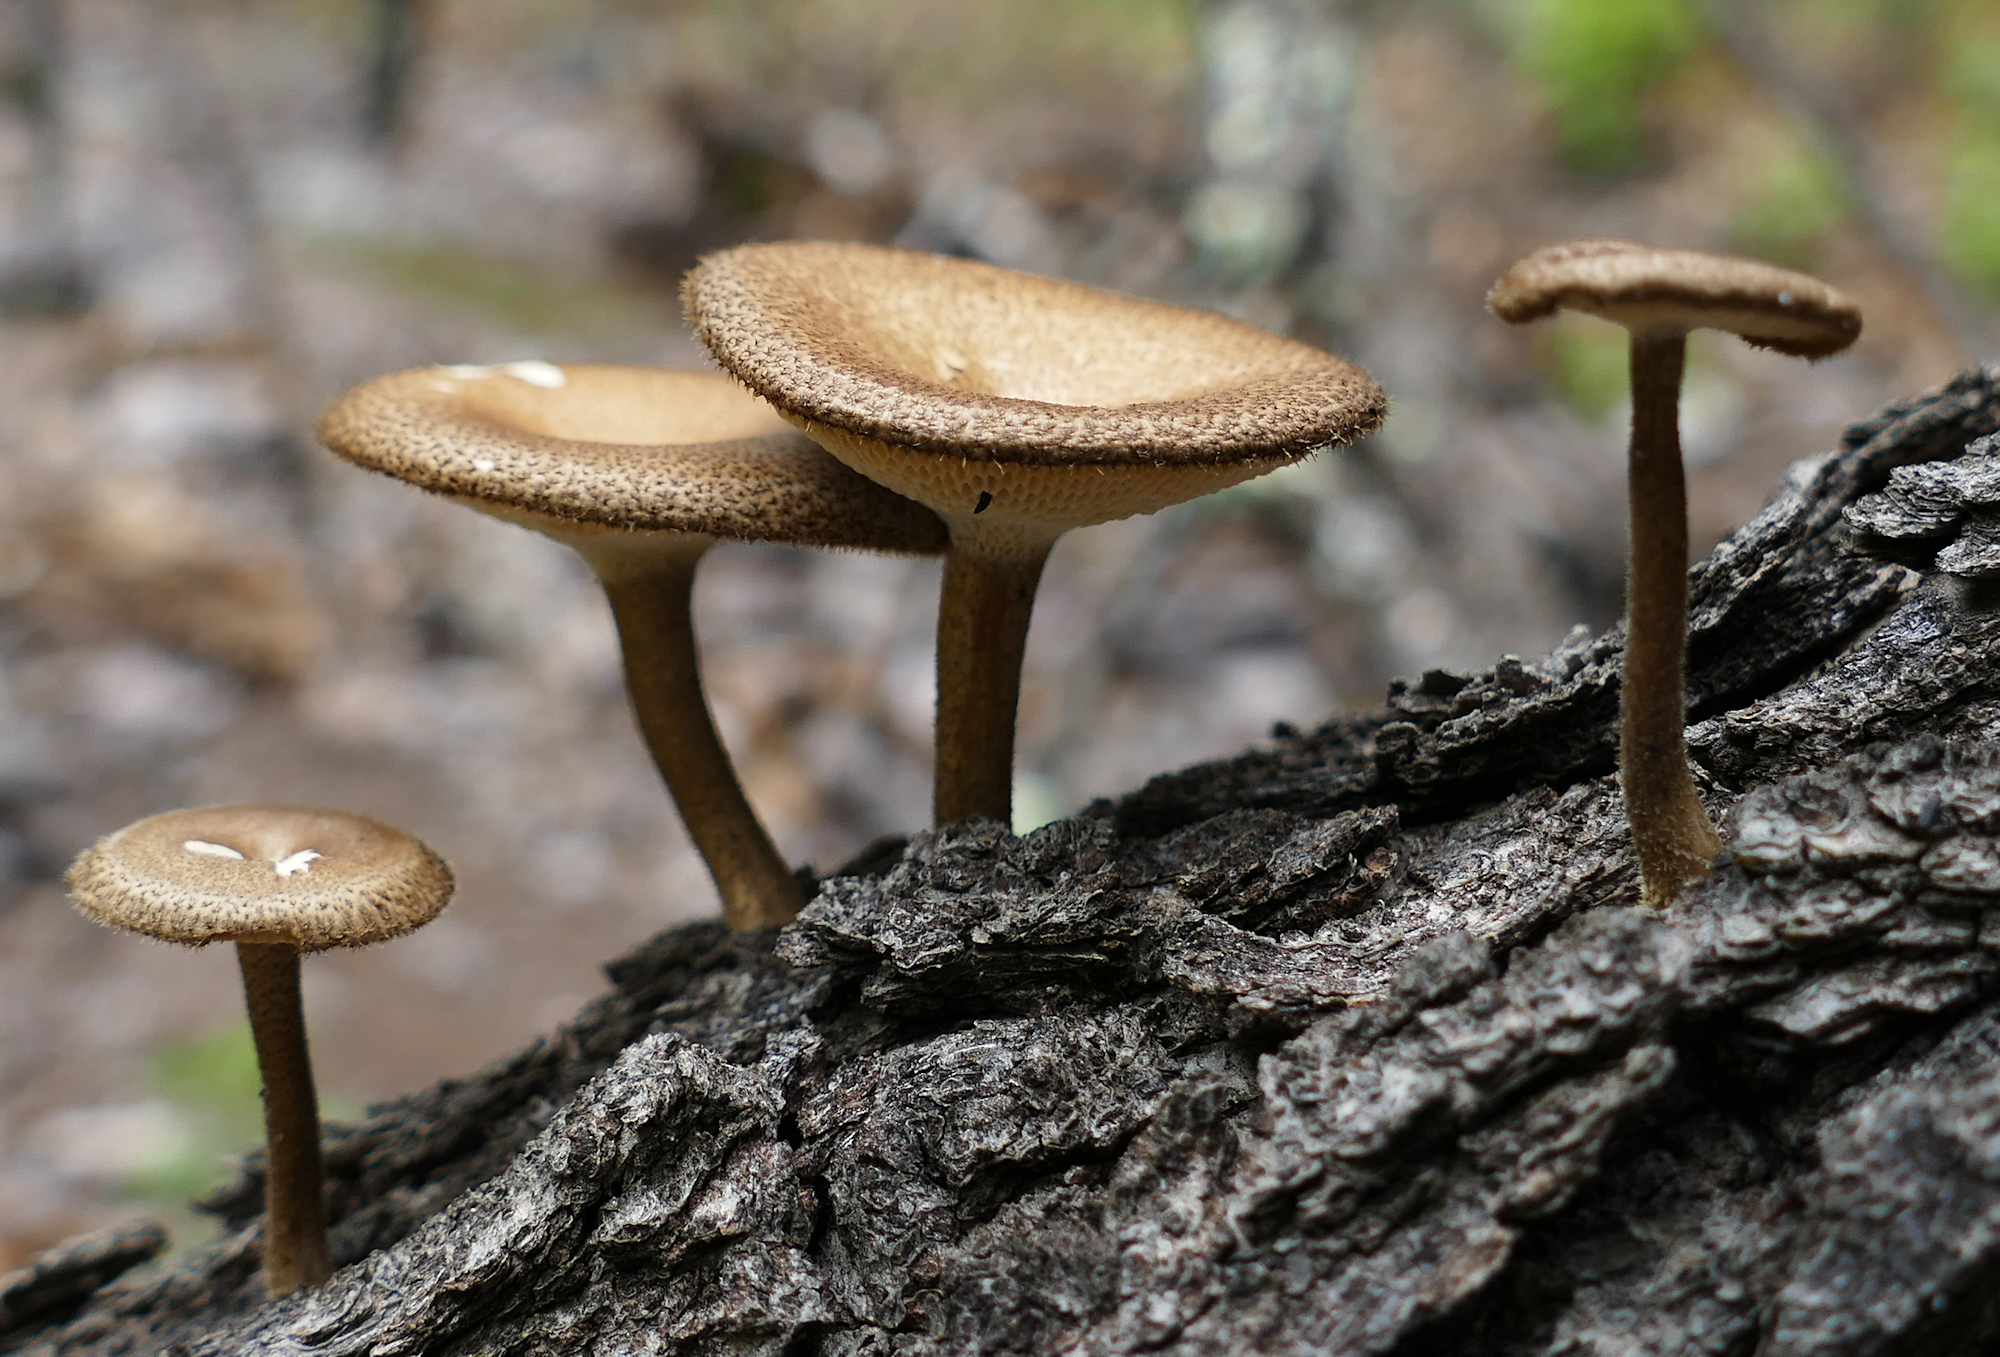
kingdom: Fungi
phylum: Basidiomycota
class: Agaricomycetes
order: Polyporales
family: Polyporaceae
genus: Lentinus
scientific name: Lentinus arcularius
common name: Spring polypore
